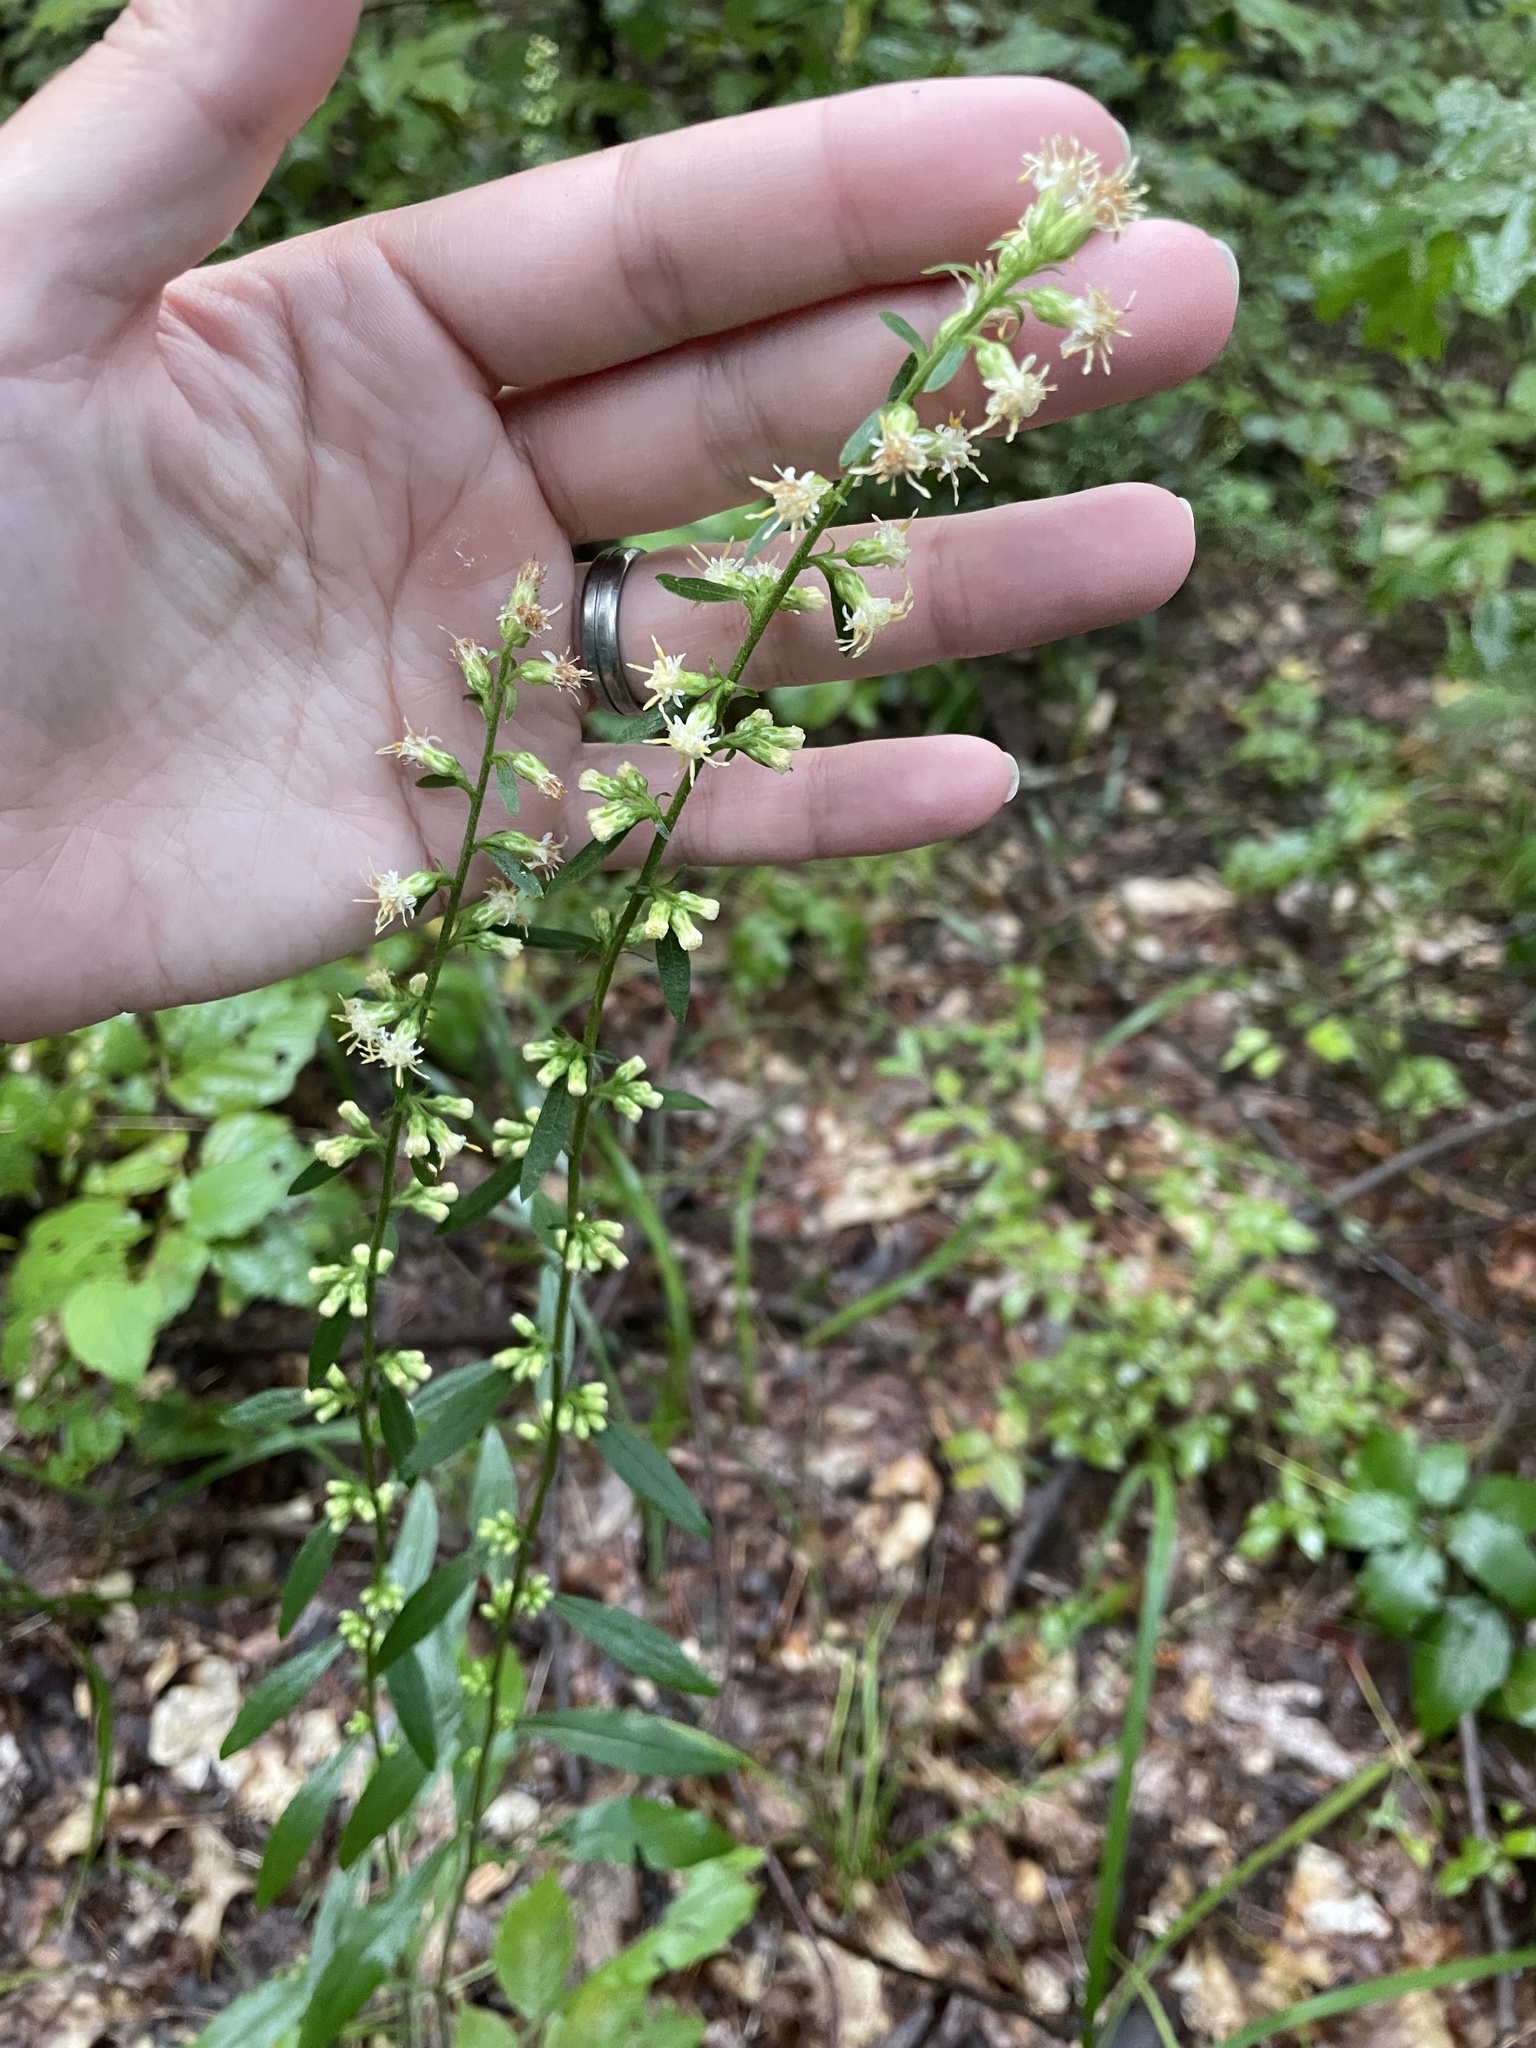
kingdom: Plantae
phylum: Tracheophyta
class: Magnoliopsida
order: Asterales
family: Asteraceae
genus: Solidago
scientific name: Solidago bicolor
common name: Silverrod
